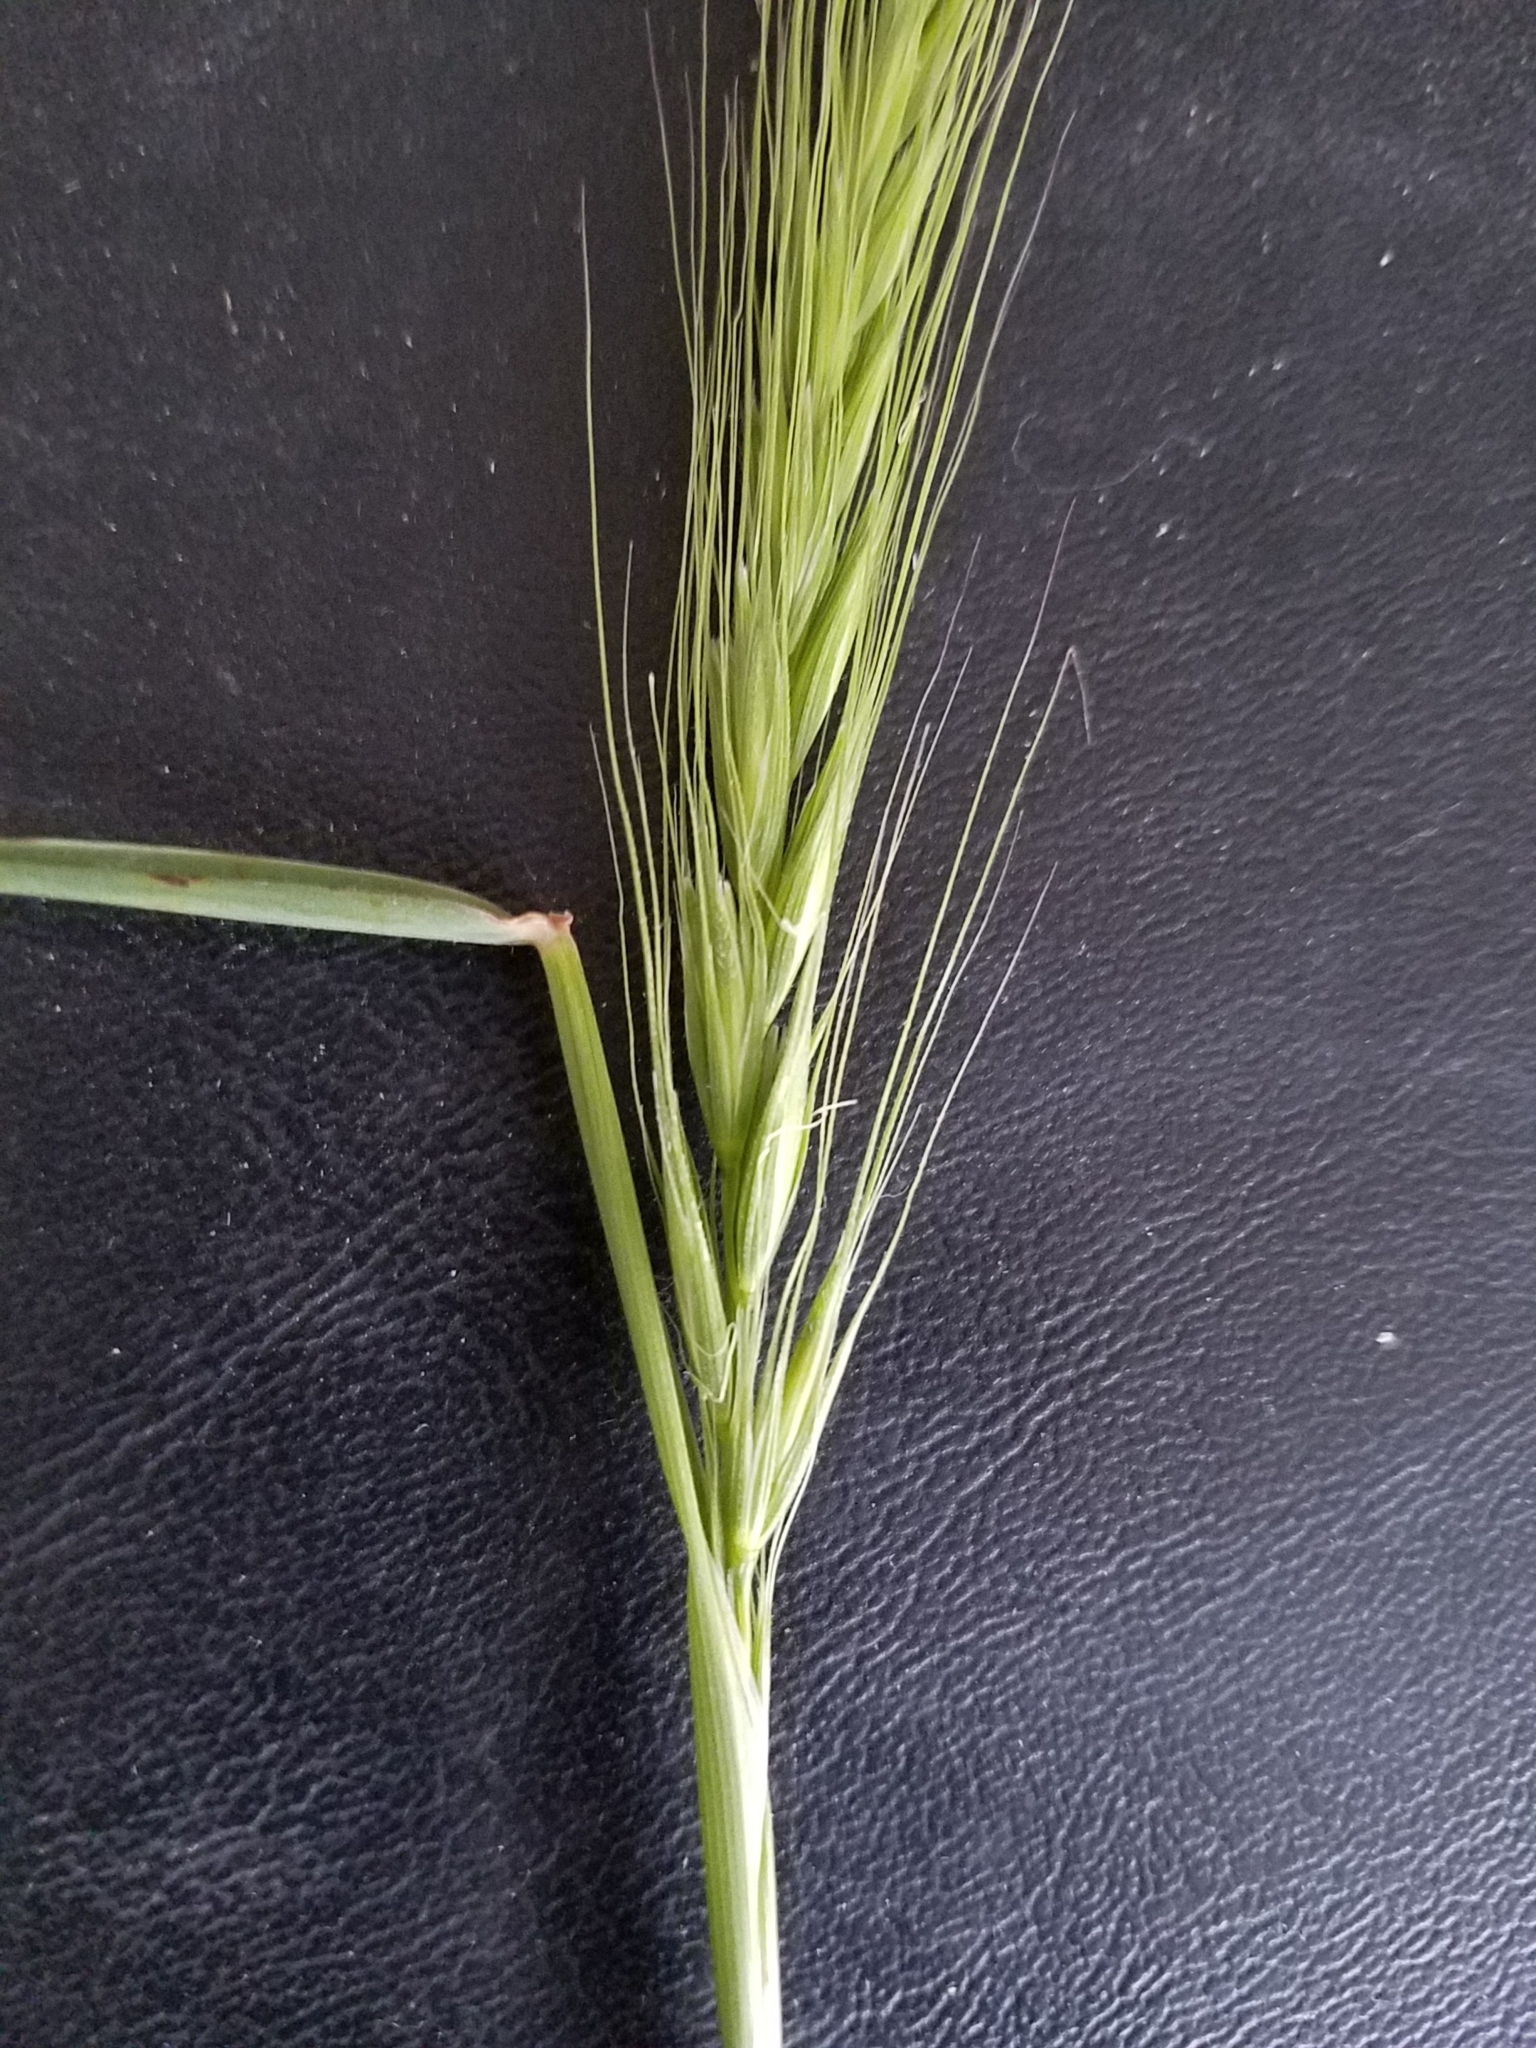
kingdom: Plantae
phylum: Tracheophyta
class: Liliopsida
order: Poales
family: Poaceae
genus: Elymus
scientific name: Elymus multisetus
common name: Big squirreltail
